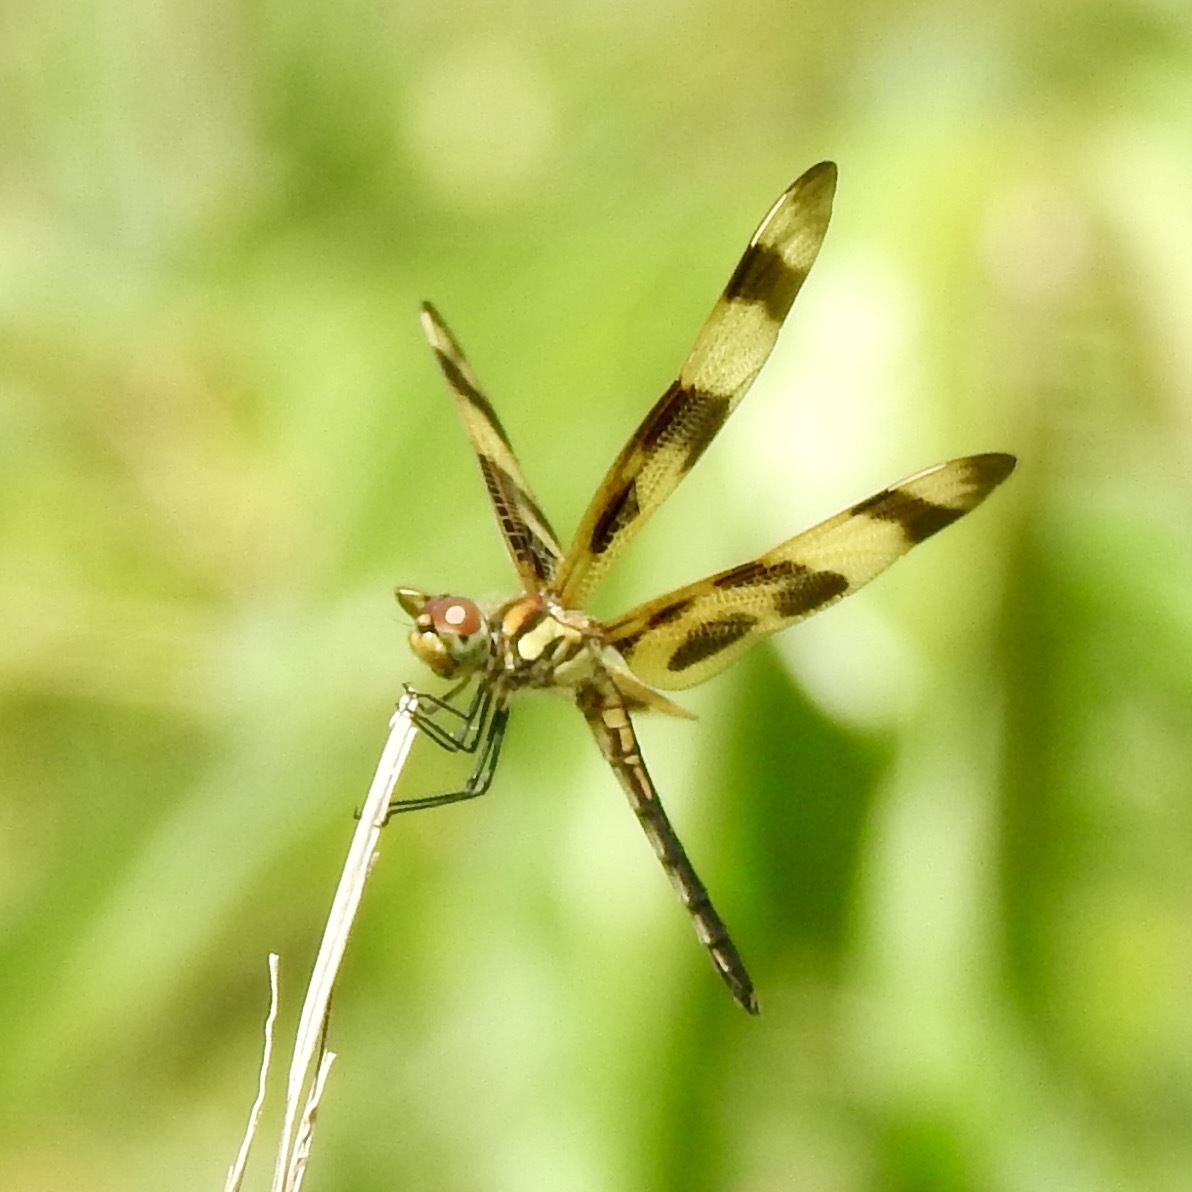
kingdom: Animalia
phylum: Arthropoda
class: Insecta
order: Odonata
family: Libellulidae
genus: Celithemis
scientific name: Celithemis eponina
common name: Halloween pennant
